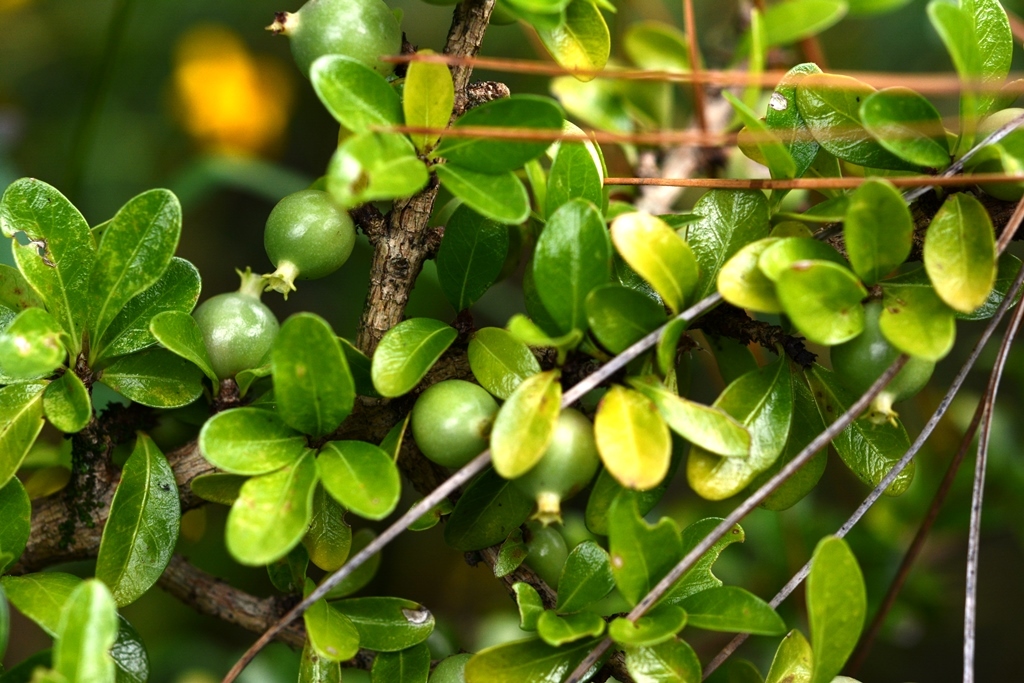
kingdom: Plantae
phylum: Tracheophyta
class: Magnoliopsida
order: Gentianales
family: Rubiaceae
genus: Randia
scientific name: Randia chiapensis
